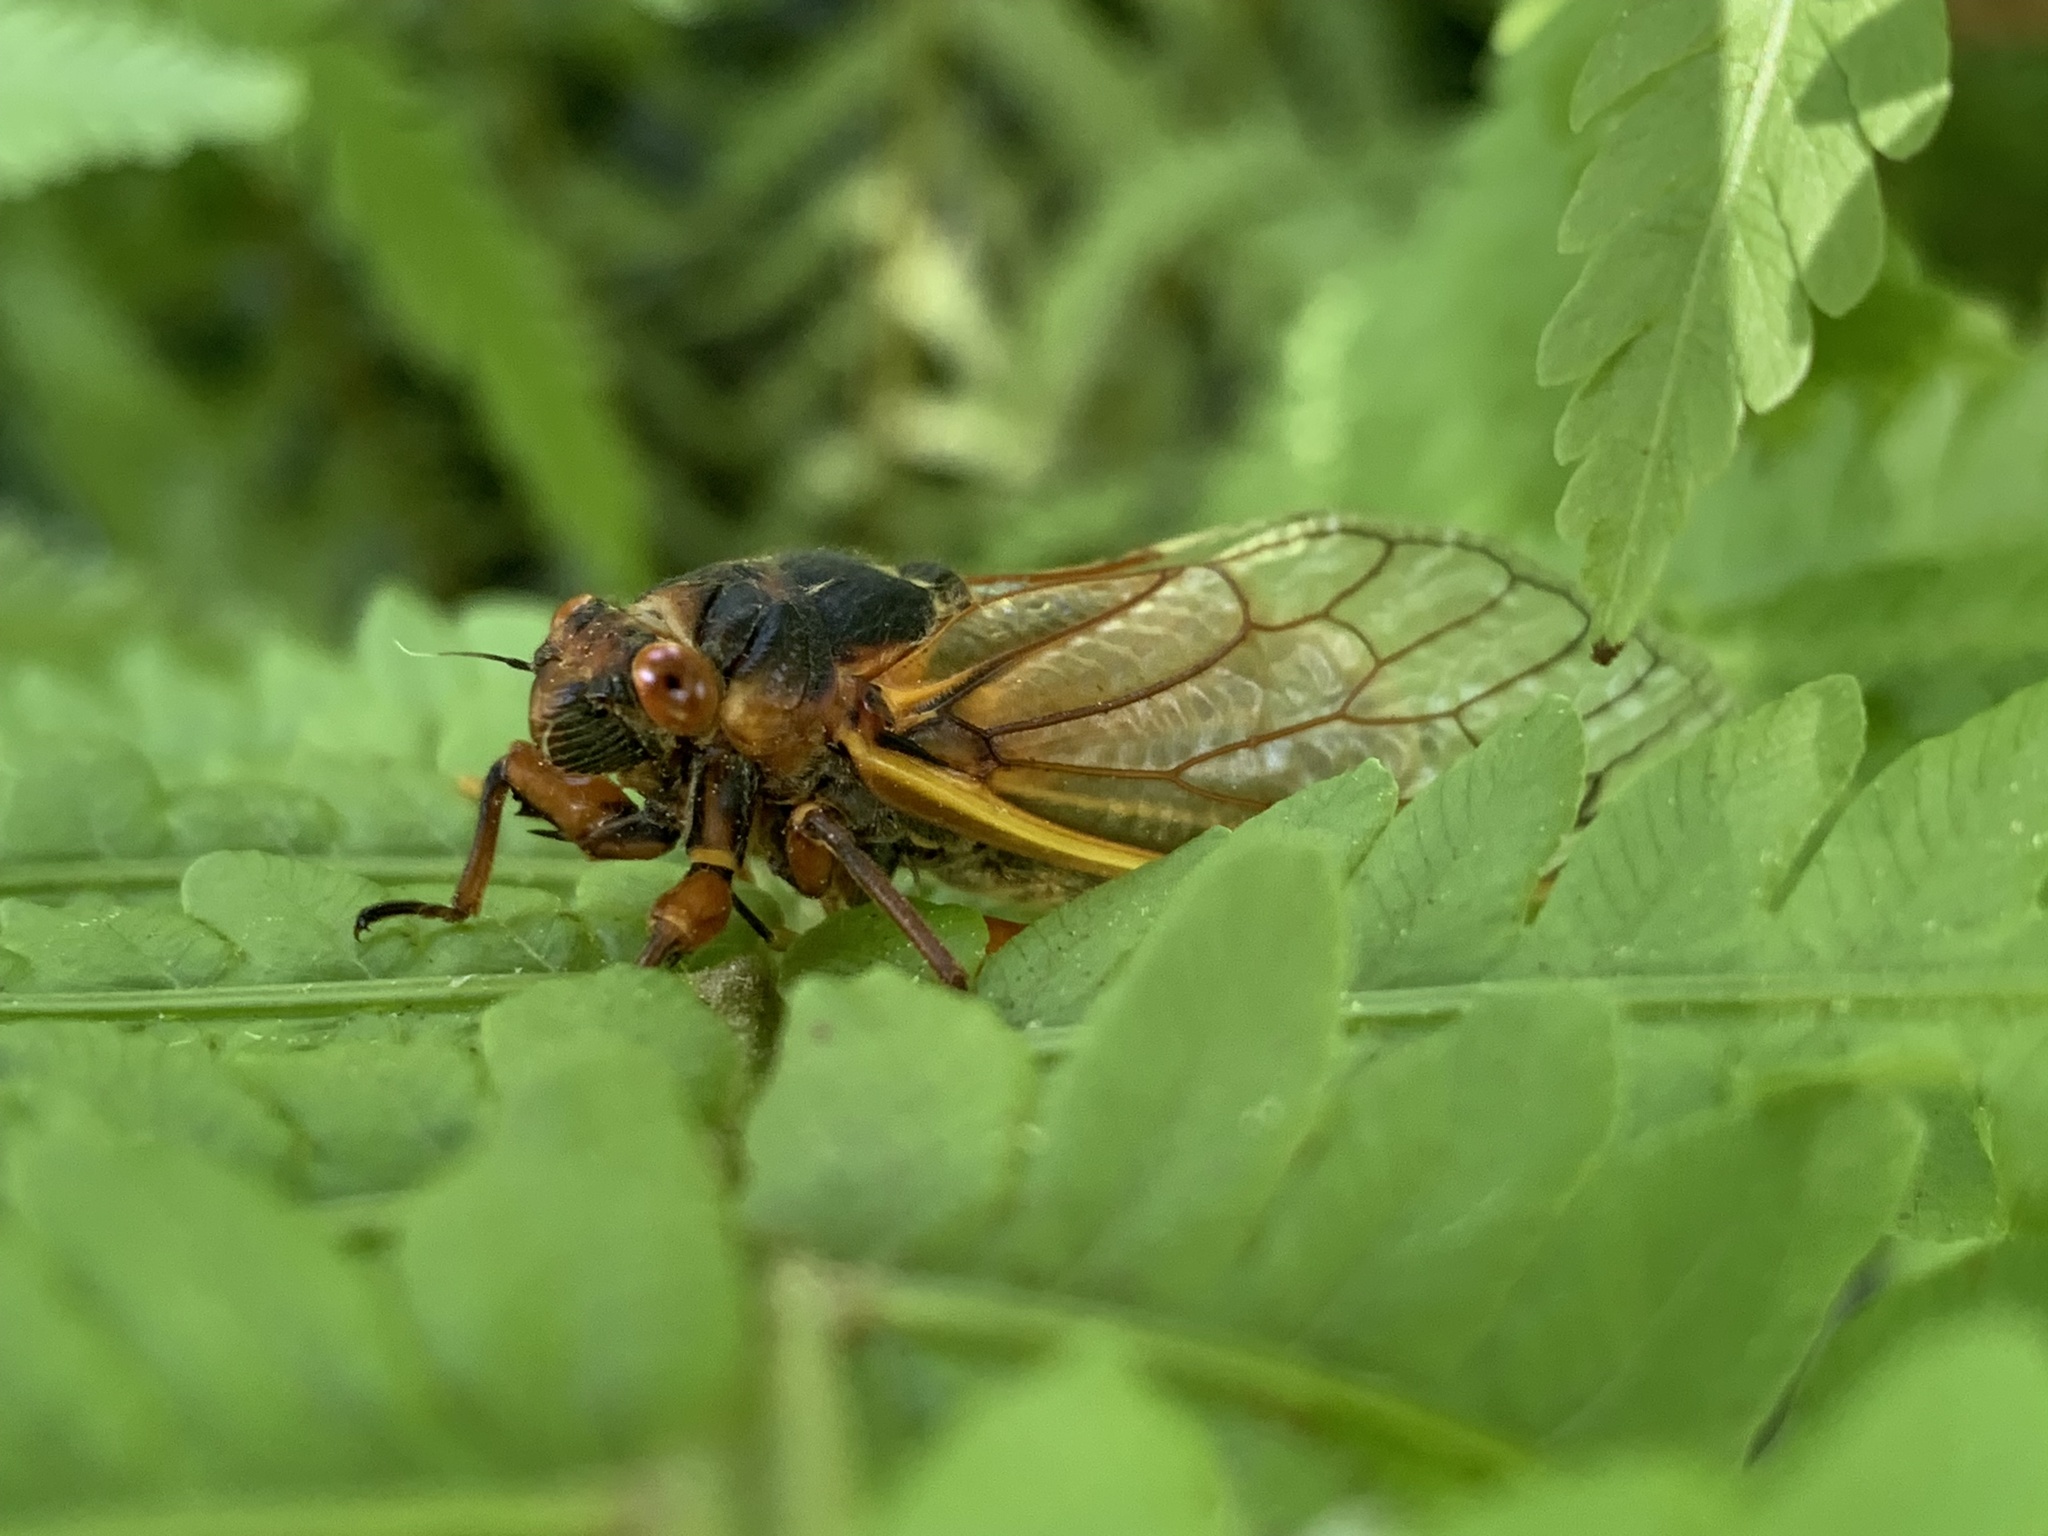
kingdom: Animalia
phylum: Arthropoda
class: Insecta
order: Hemiptera
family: Cicadidae
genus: Magicicada
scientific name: Magicicada septendecim
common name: Periodical cicada
